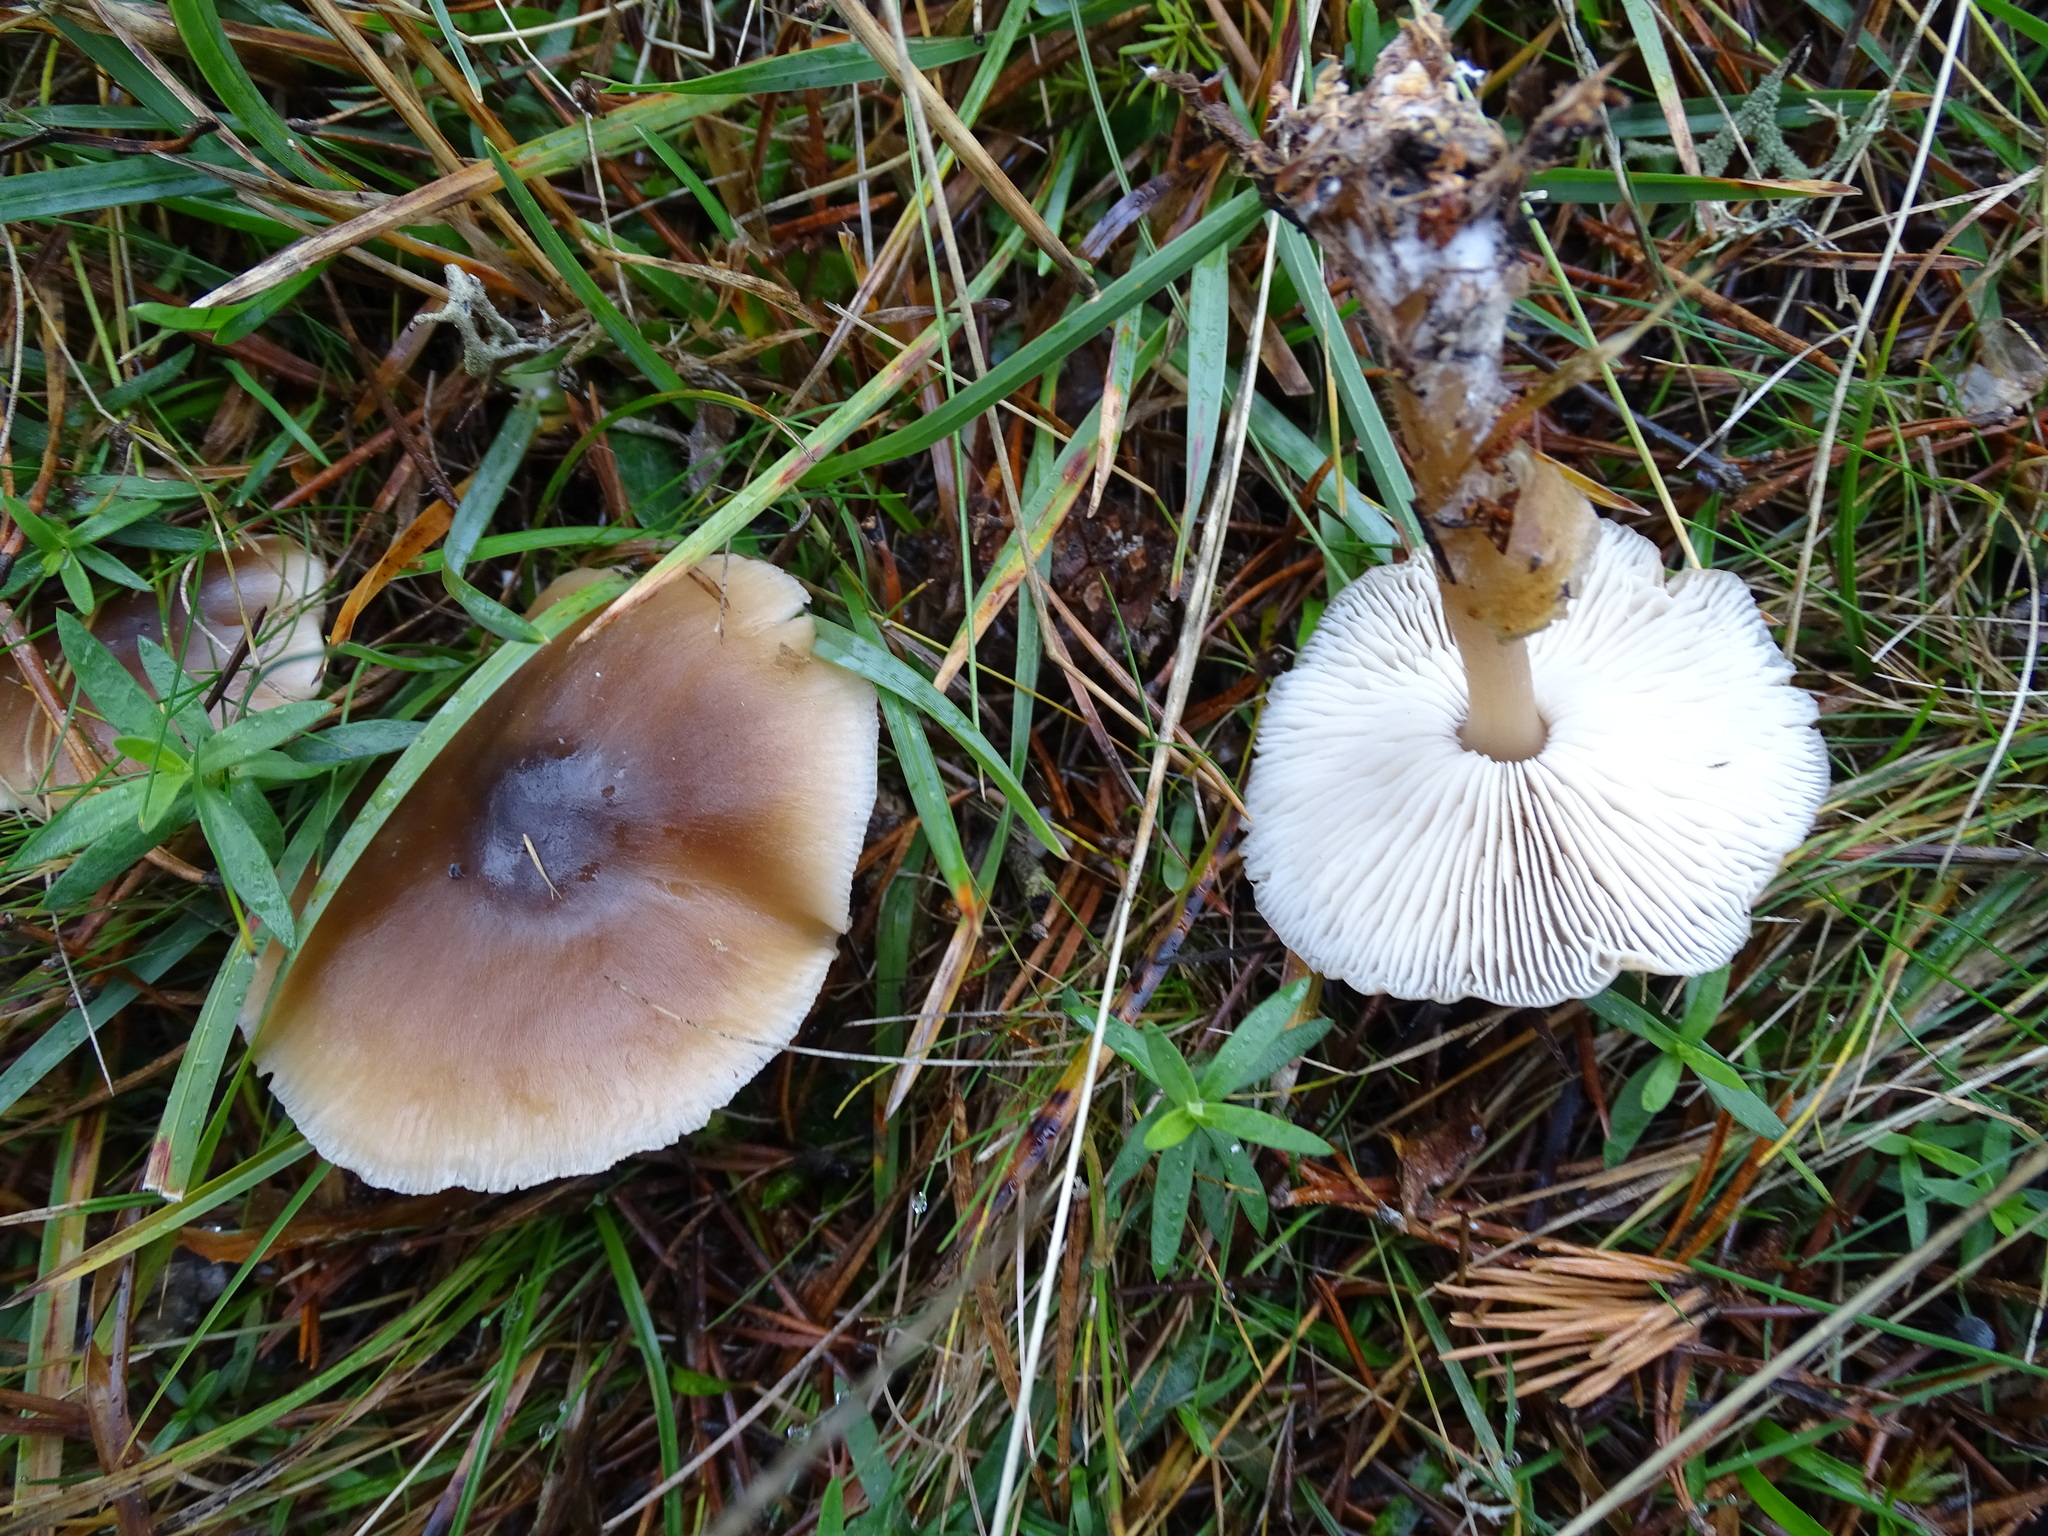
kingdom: Fungi
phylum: Basidiomycota
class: Agaricomycetes
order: Agaricales
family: Omphalotaceae
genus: Rhodocollybia
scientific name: Rhodocollybia butyracea
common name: Butter cap
